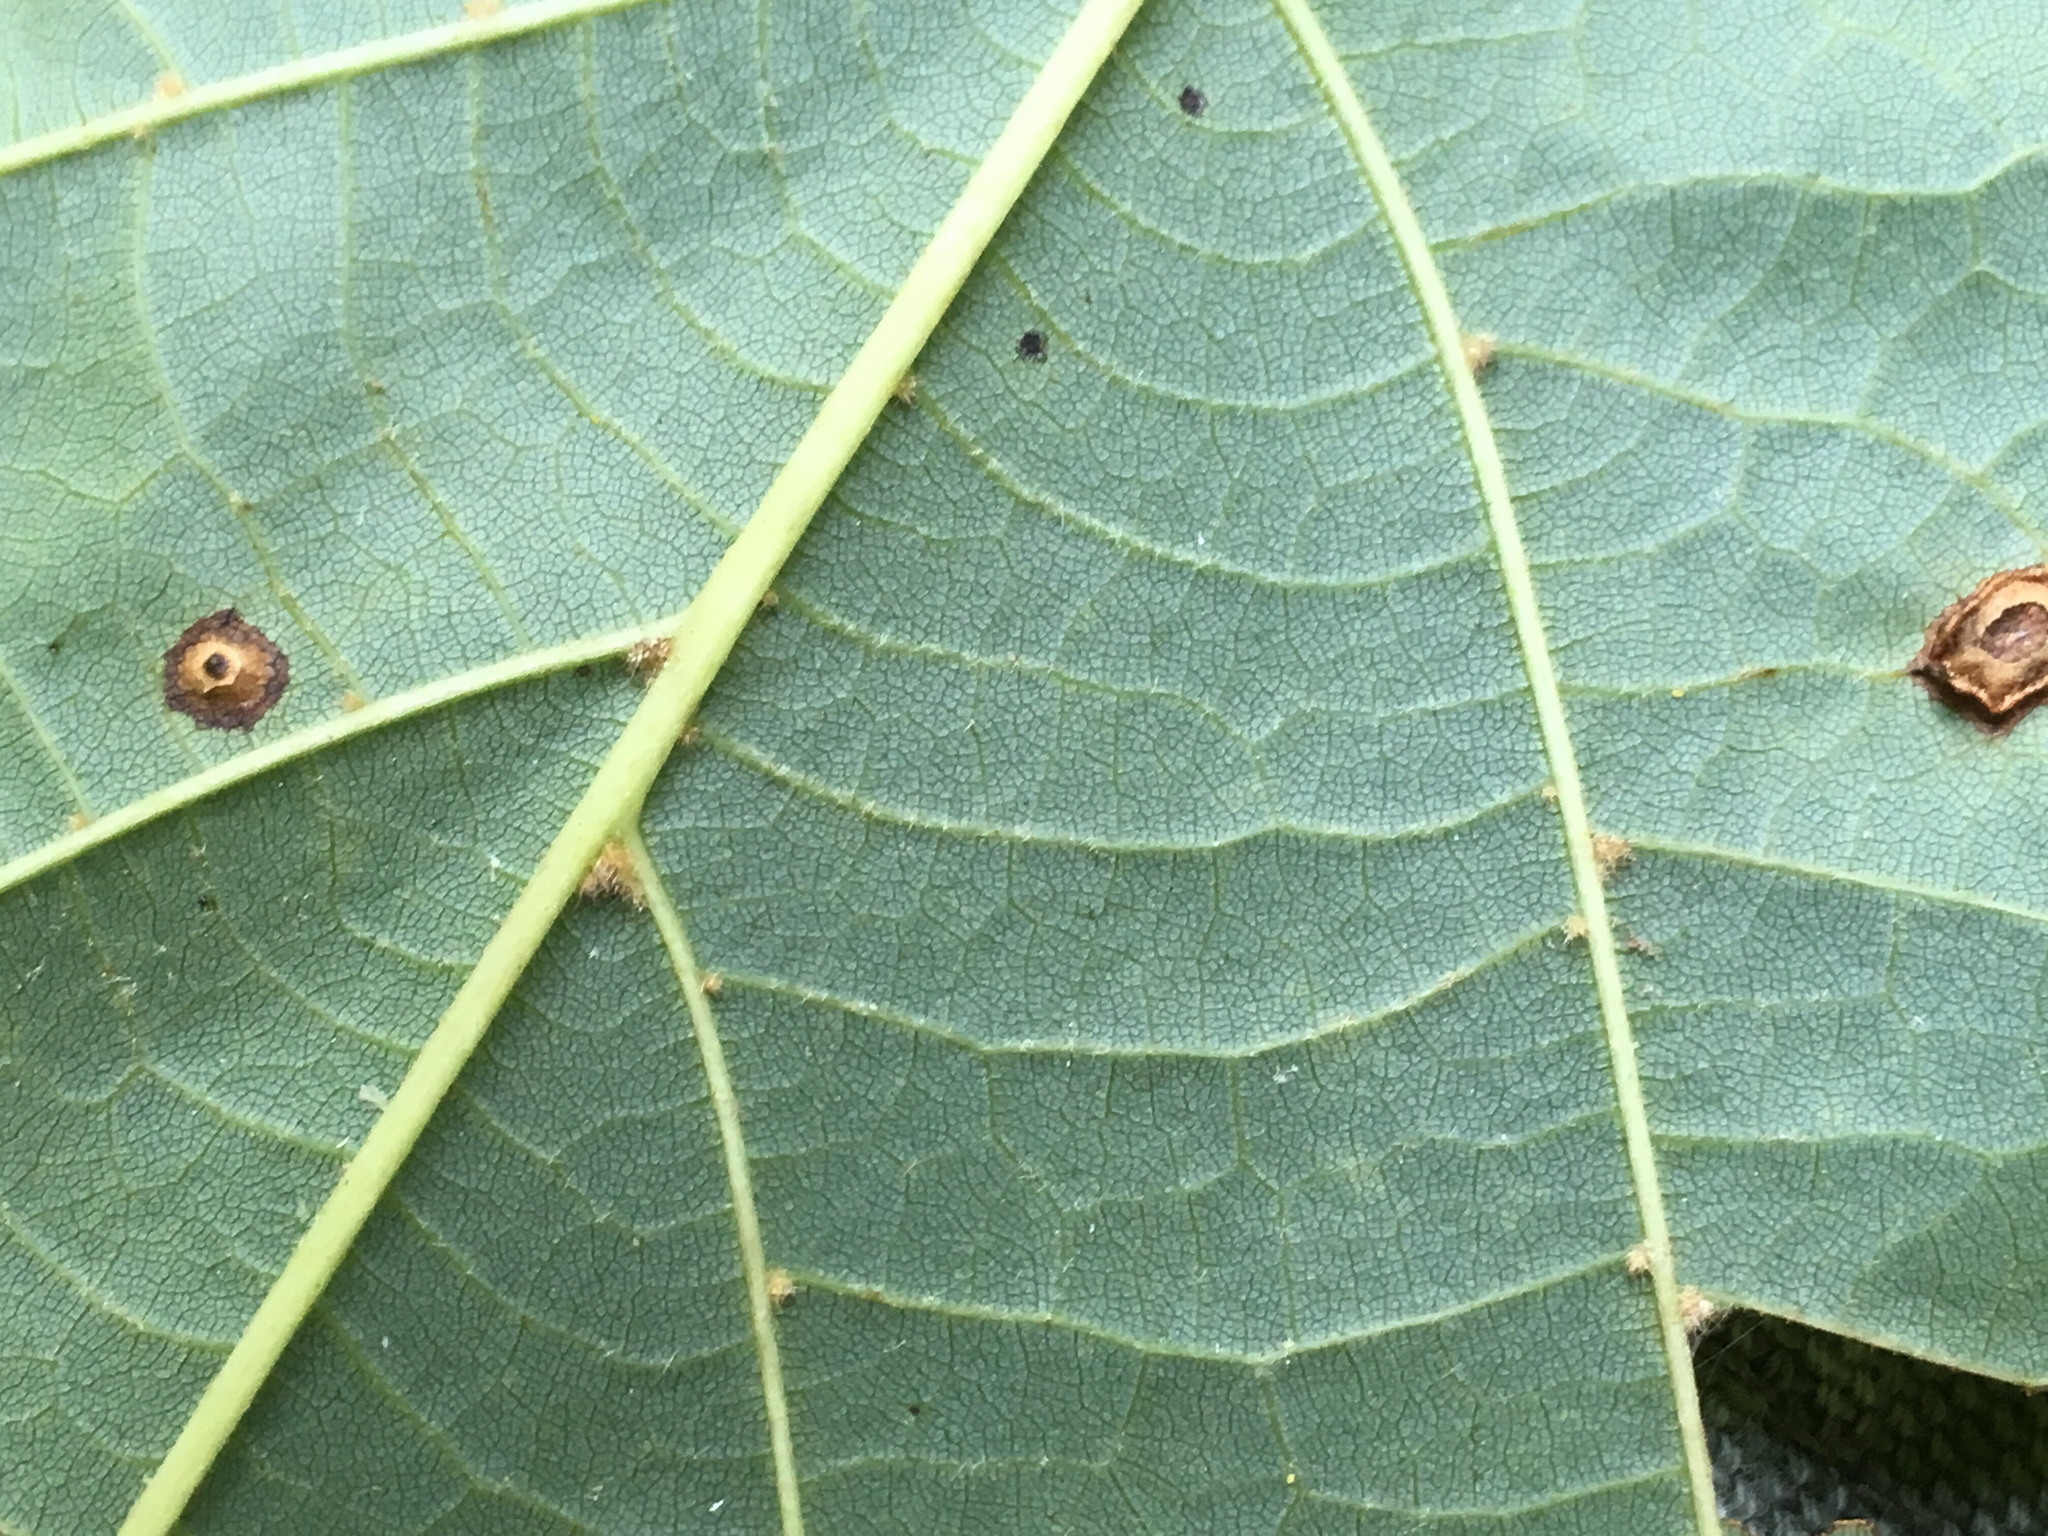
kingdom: Plantae
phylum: Tracheophyta
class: Magnoliopsida
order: Malvales
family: Malvaceae
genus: Tilia
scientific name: Tilia americana
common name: Basswood
